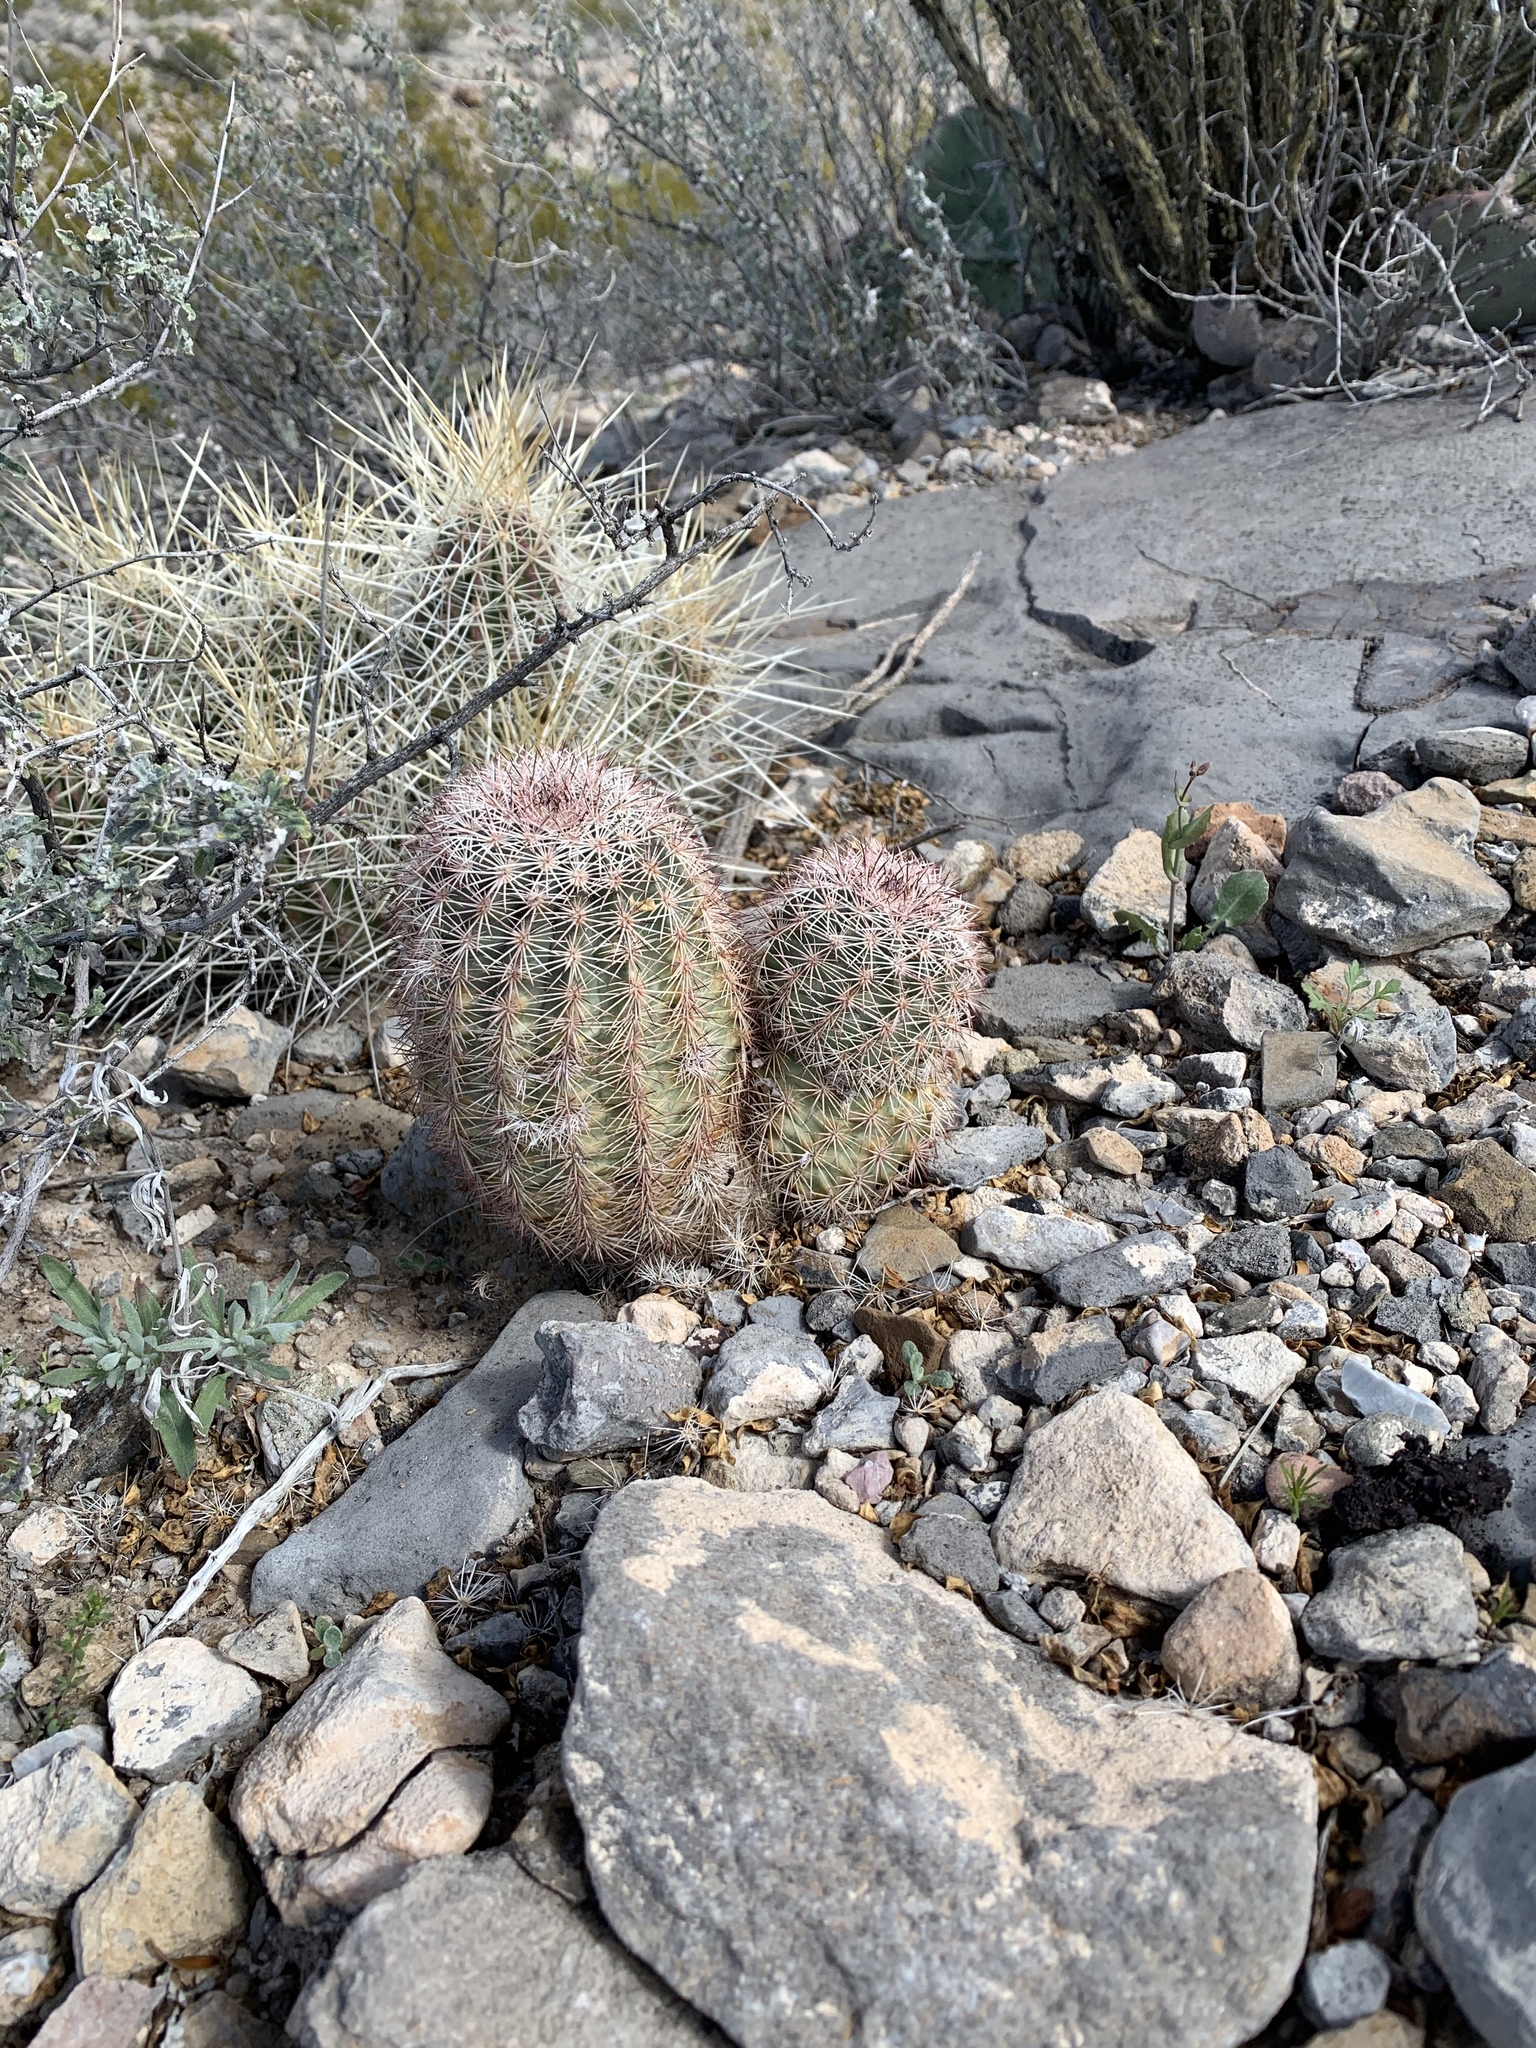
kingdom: Plantae
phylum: Tracheophyta
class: Magnoliopsida
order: Caryophyllales
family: Cactaceae
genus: Echinocereus
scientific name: Echinocereus dasyacanthus
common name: Spiny hedgehog cactus
